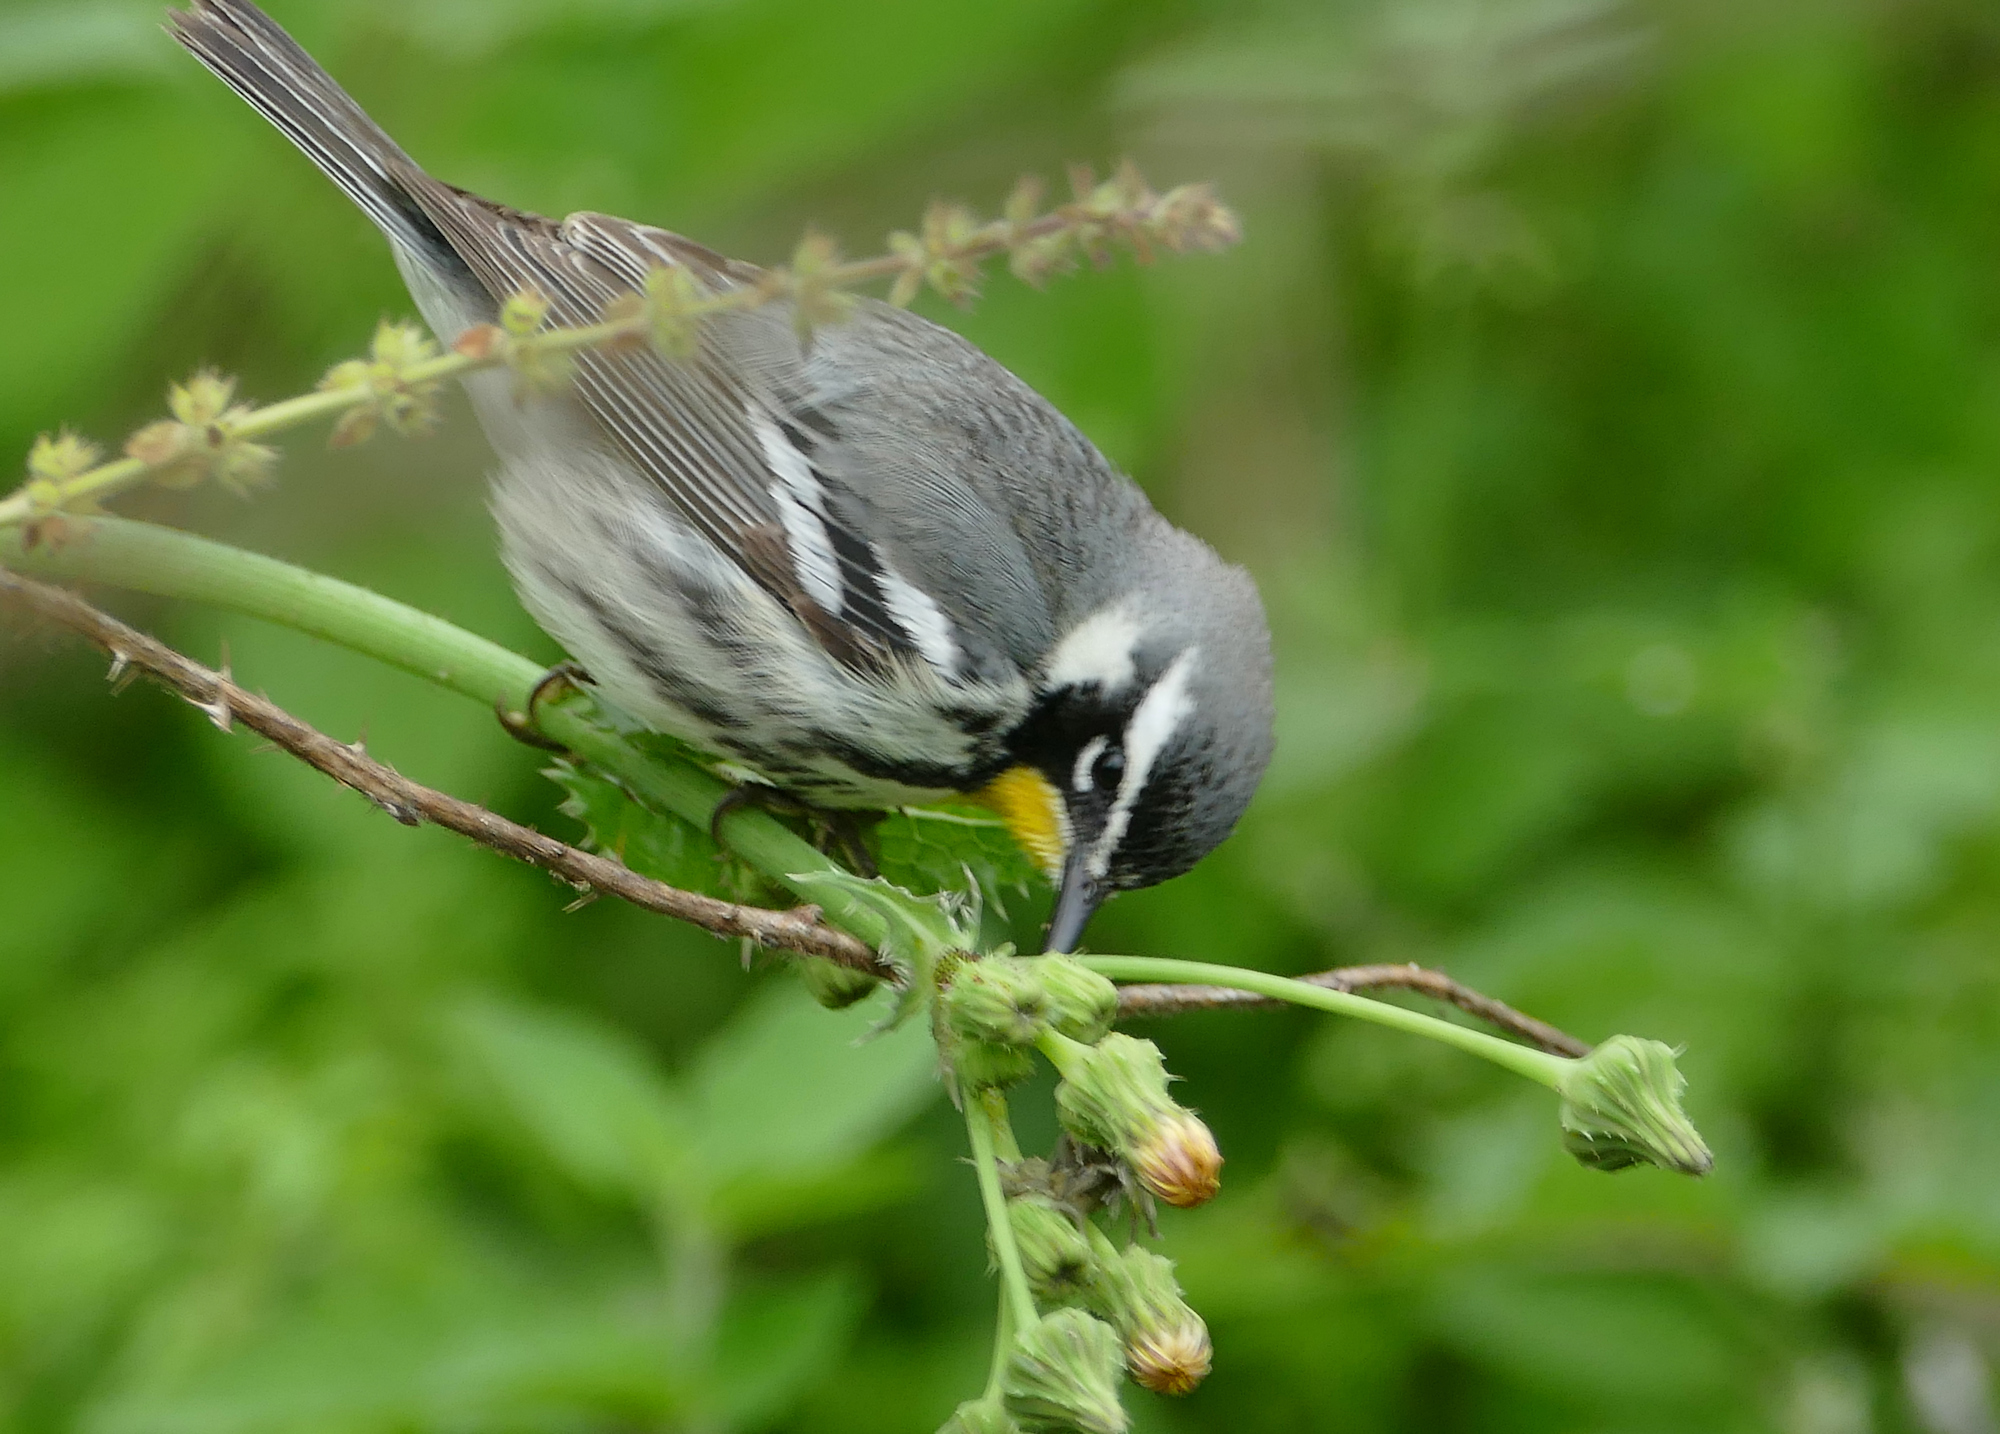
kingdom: Animalia
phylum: Chordata
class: Aves
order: Passeriformes
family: Parulidae
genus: Setophaga
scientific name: Setophaga dominica
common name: Yellow-throated warbler
